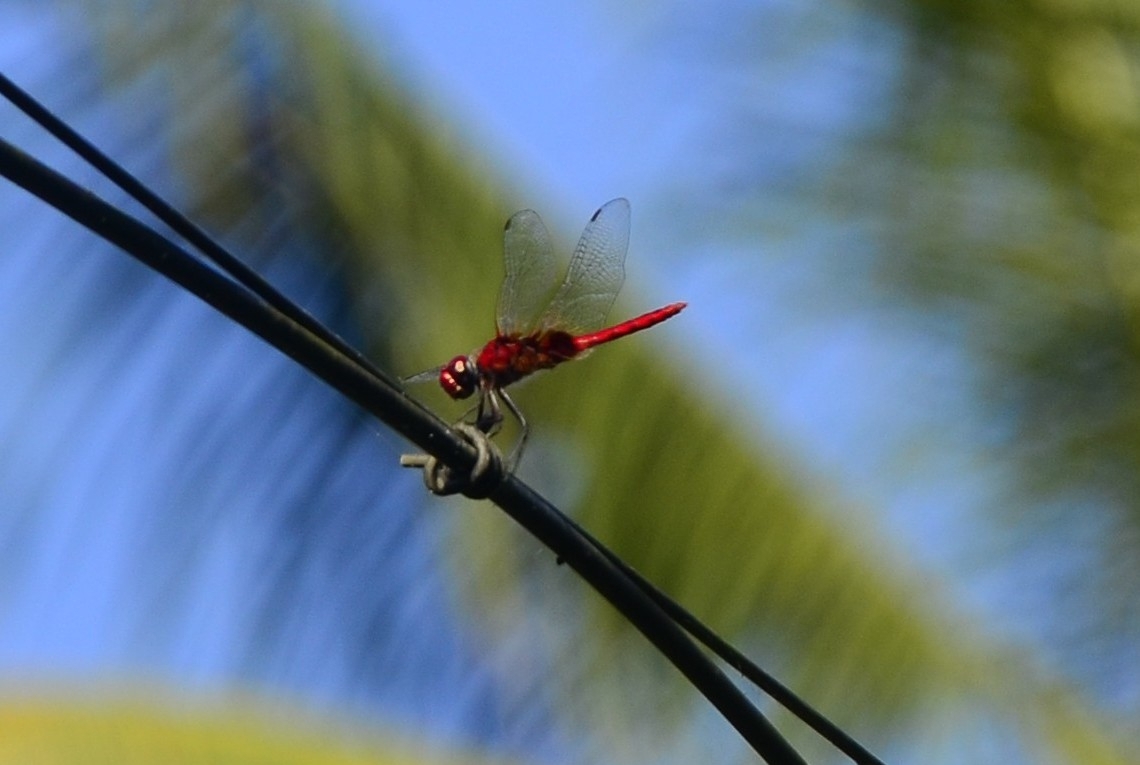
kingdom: Animalia
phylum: Arthropoda
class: Insecta
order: Odonata
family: Libellulidae
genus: Urothemis
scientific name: Urothemis signata
